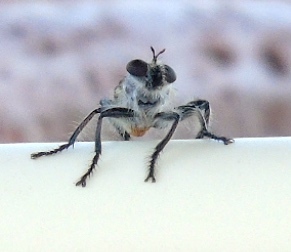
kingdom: Animalia
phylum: Arthropoda
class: Insecta
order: Diptera
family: Asilidae
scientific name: Asilidae
